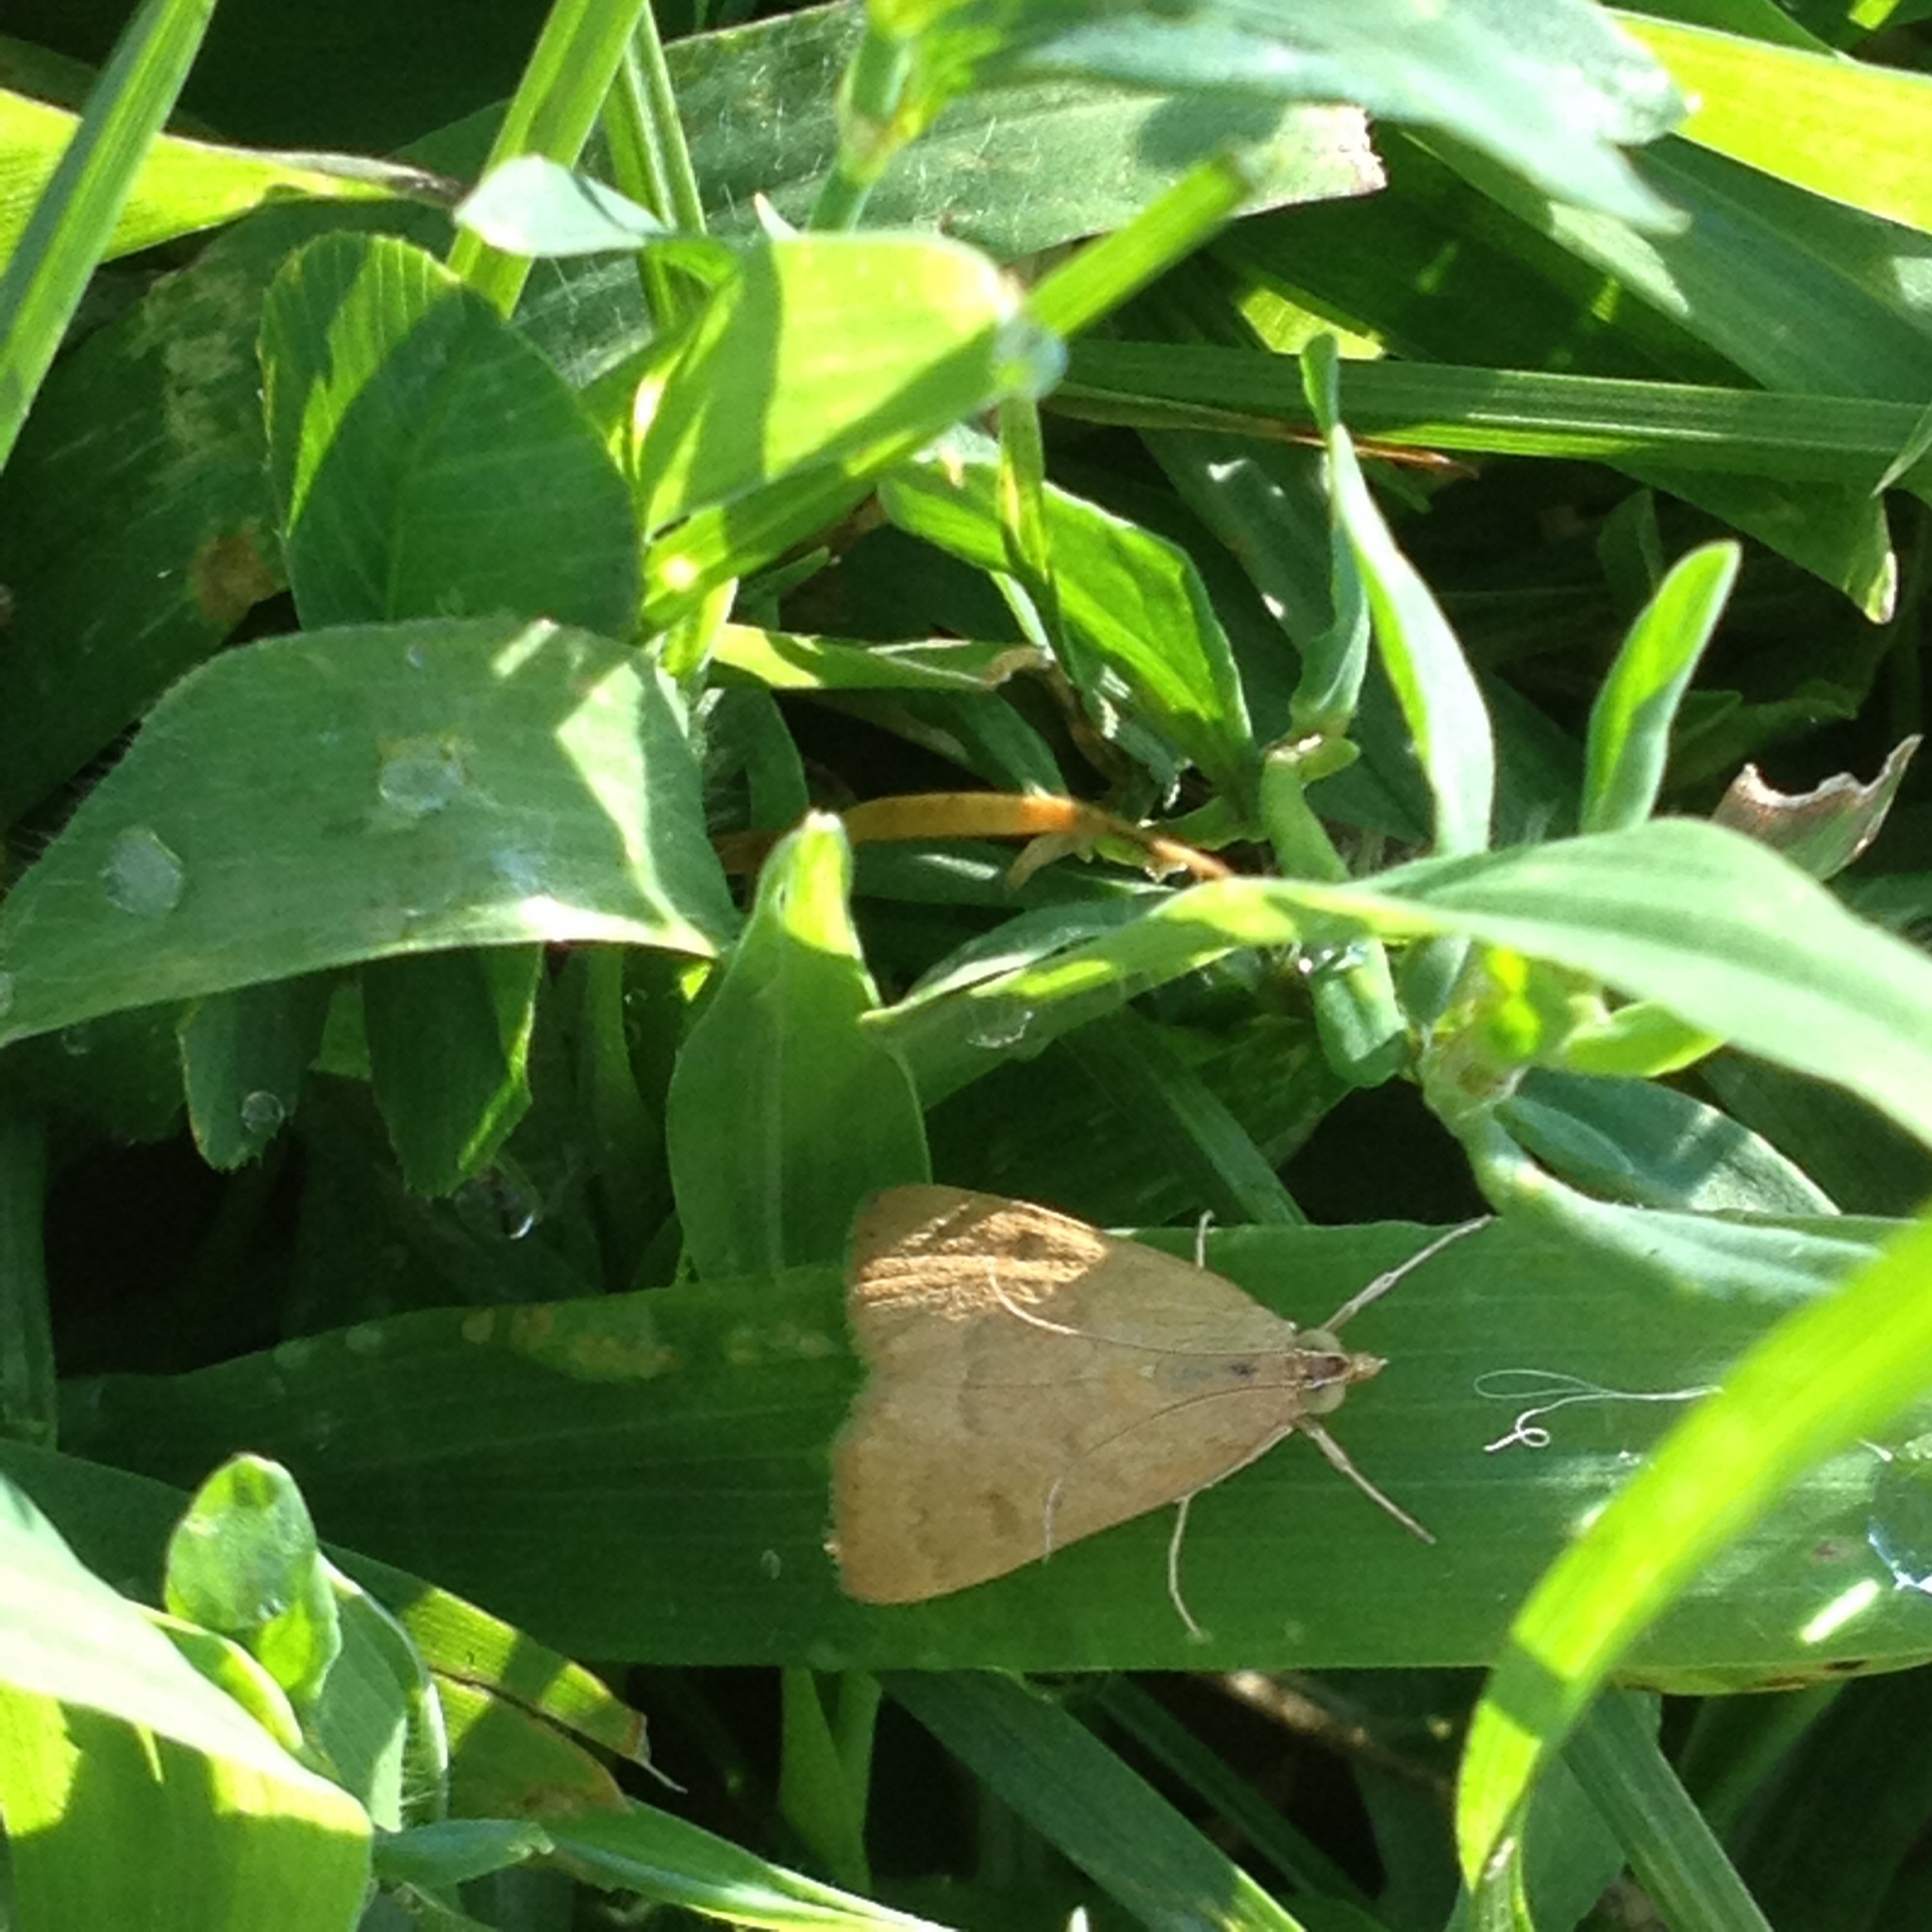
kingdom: Animalia
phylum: Arthropoda
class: Insecta
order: Lepidoptera
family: Crambidae
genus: Achyra
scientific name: Achyra rantalis
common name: Garden webworm
